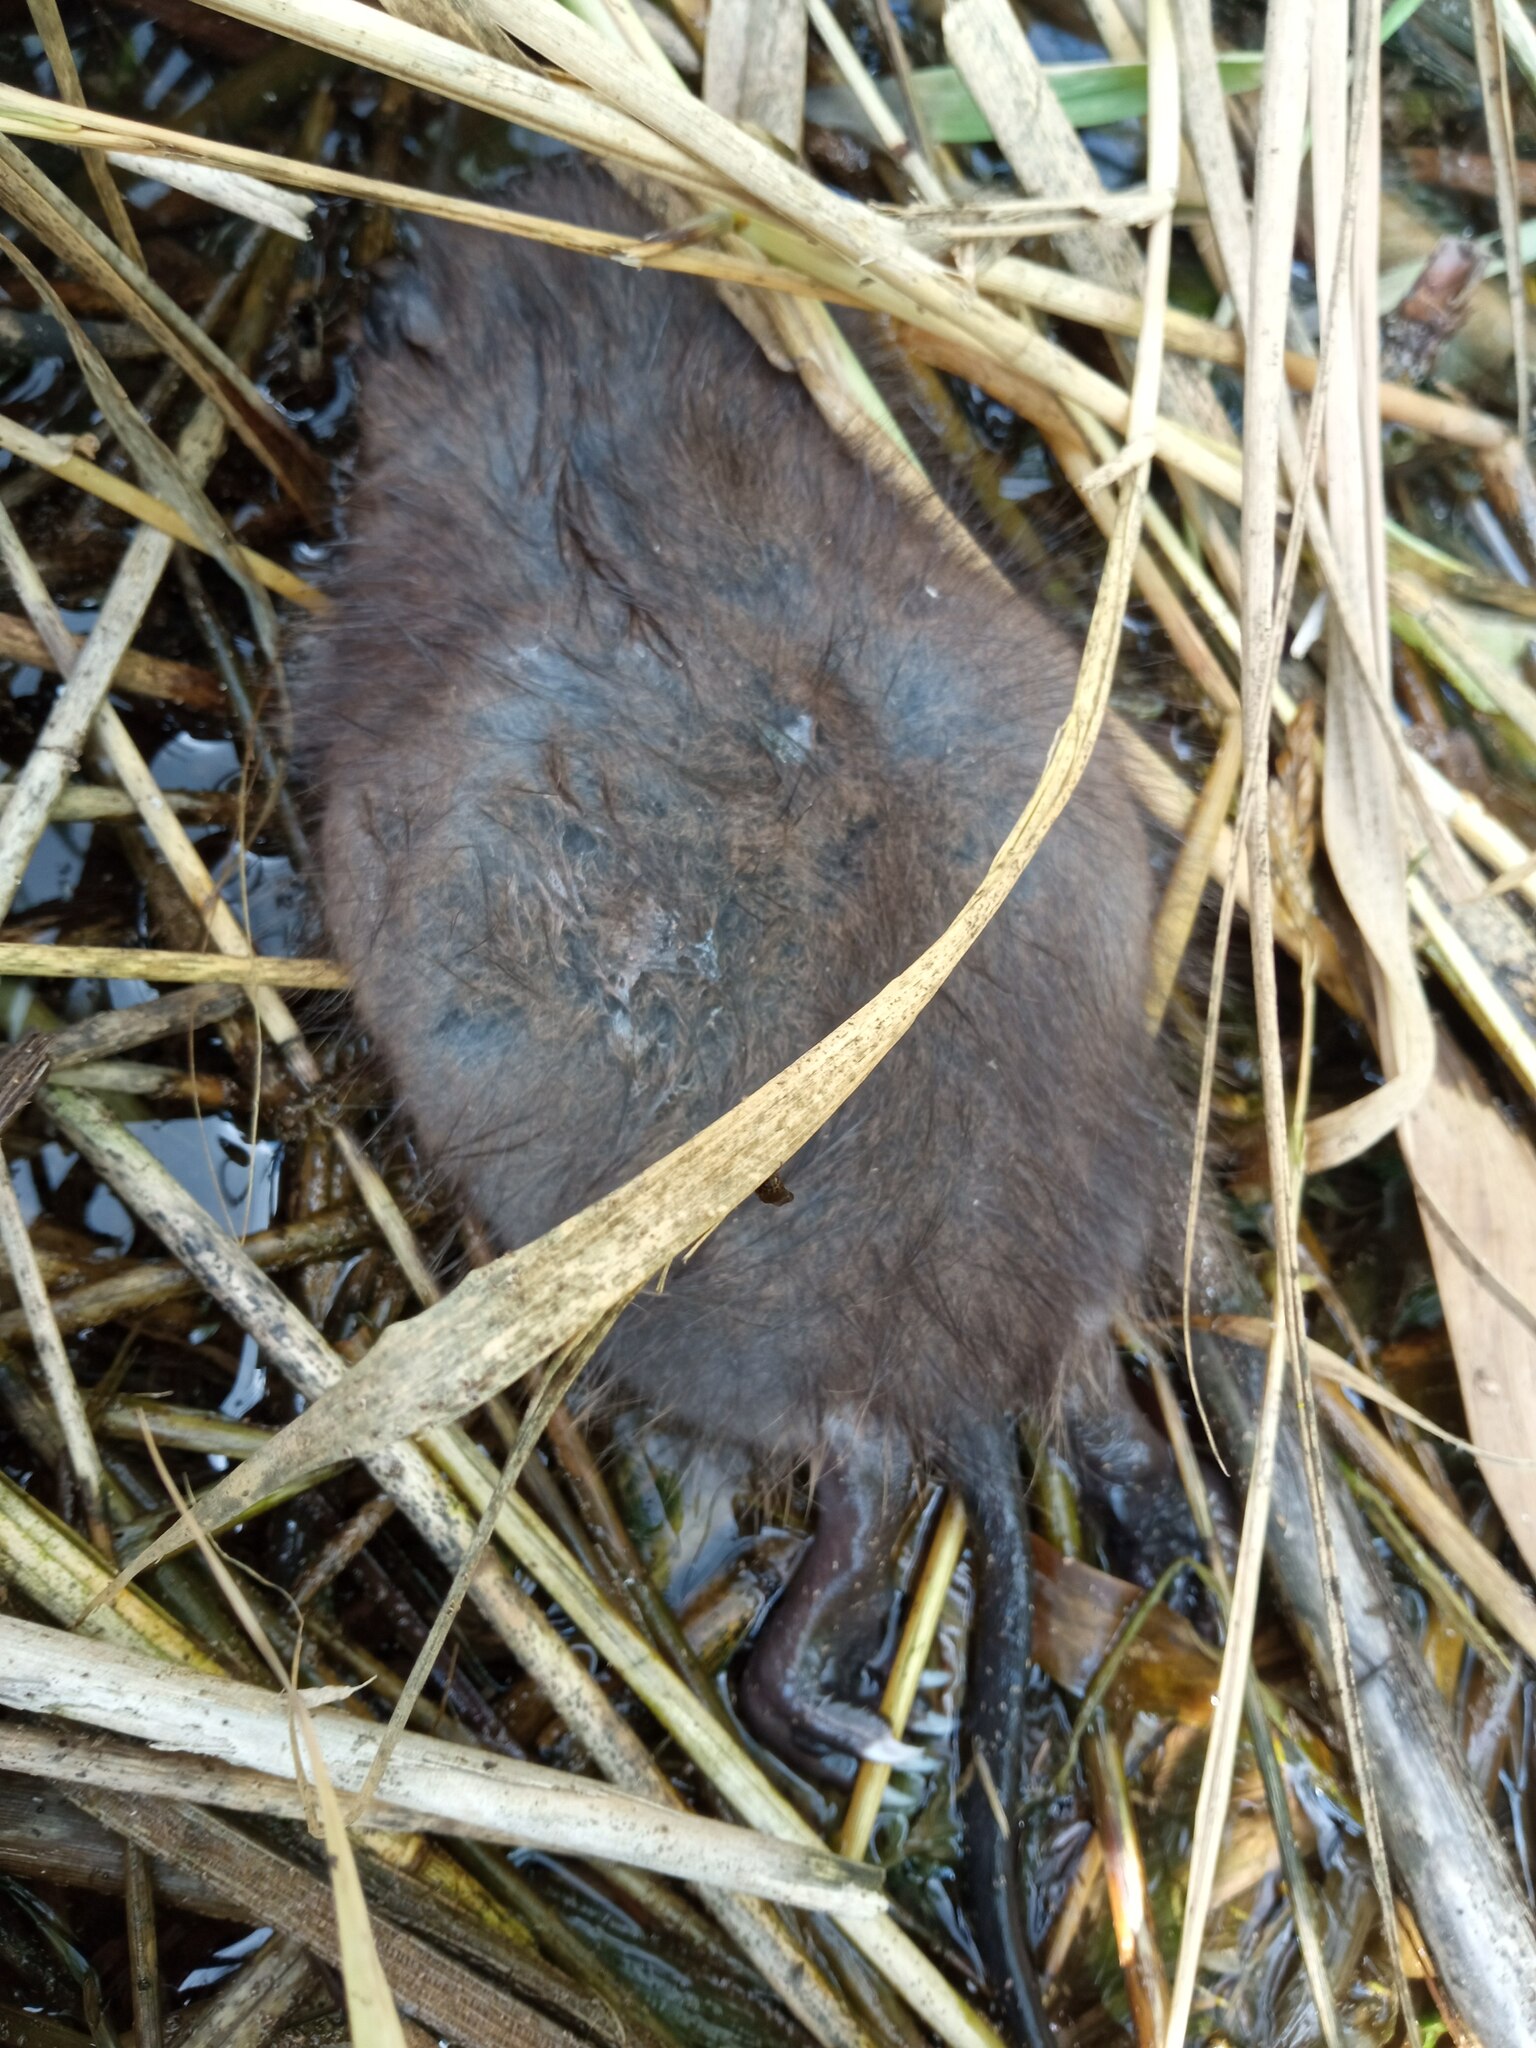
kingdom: Animalia
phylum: Chordata
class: Mammalia
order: Rodentia
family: Cricetidae
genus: Ondatra
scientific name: Ondatra zibethicus
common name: Muskrat
